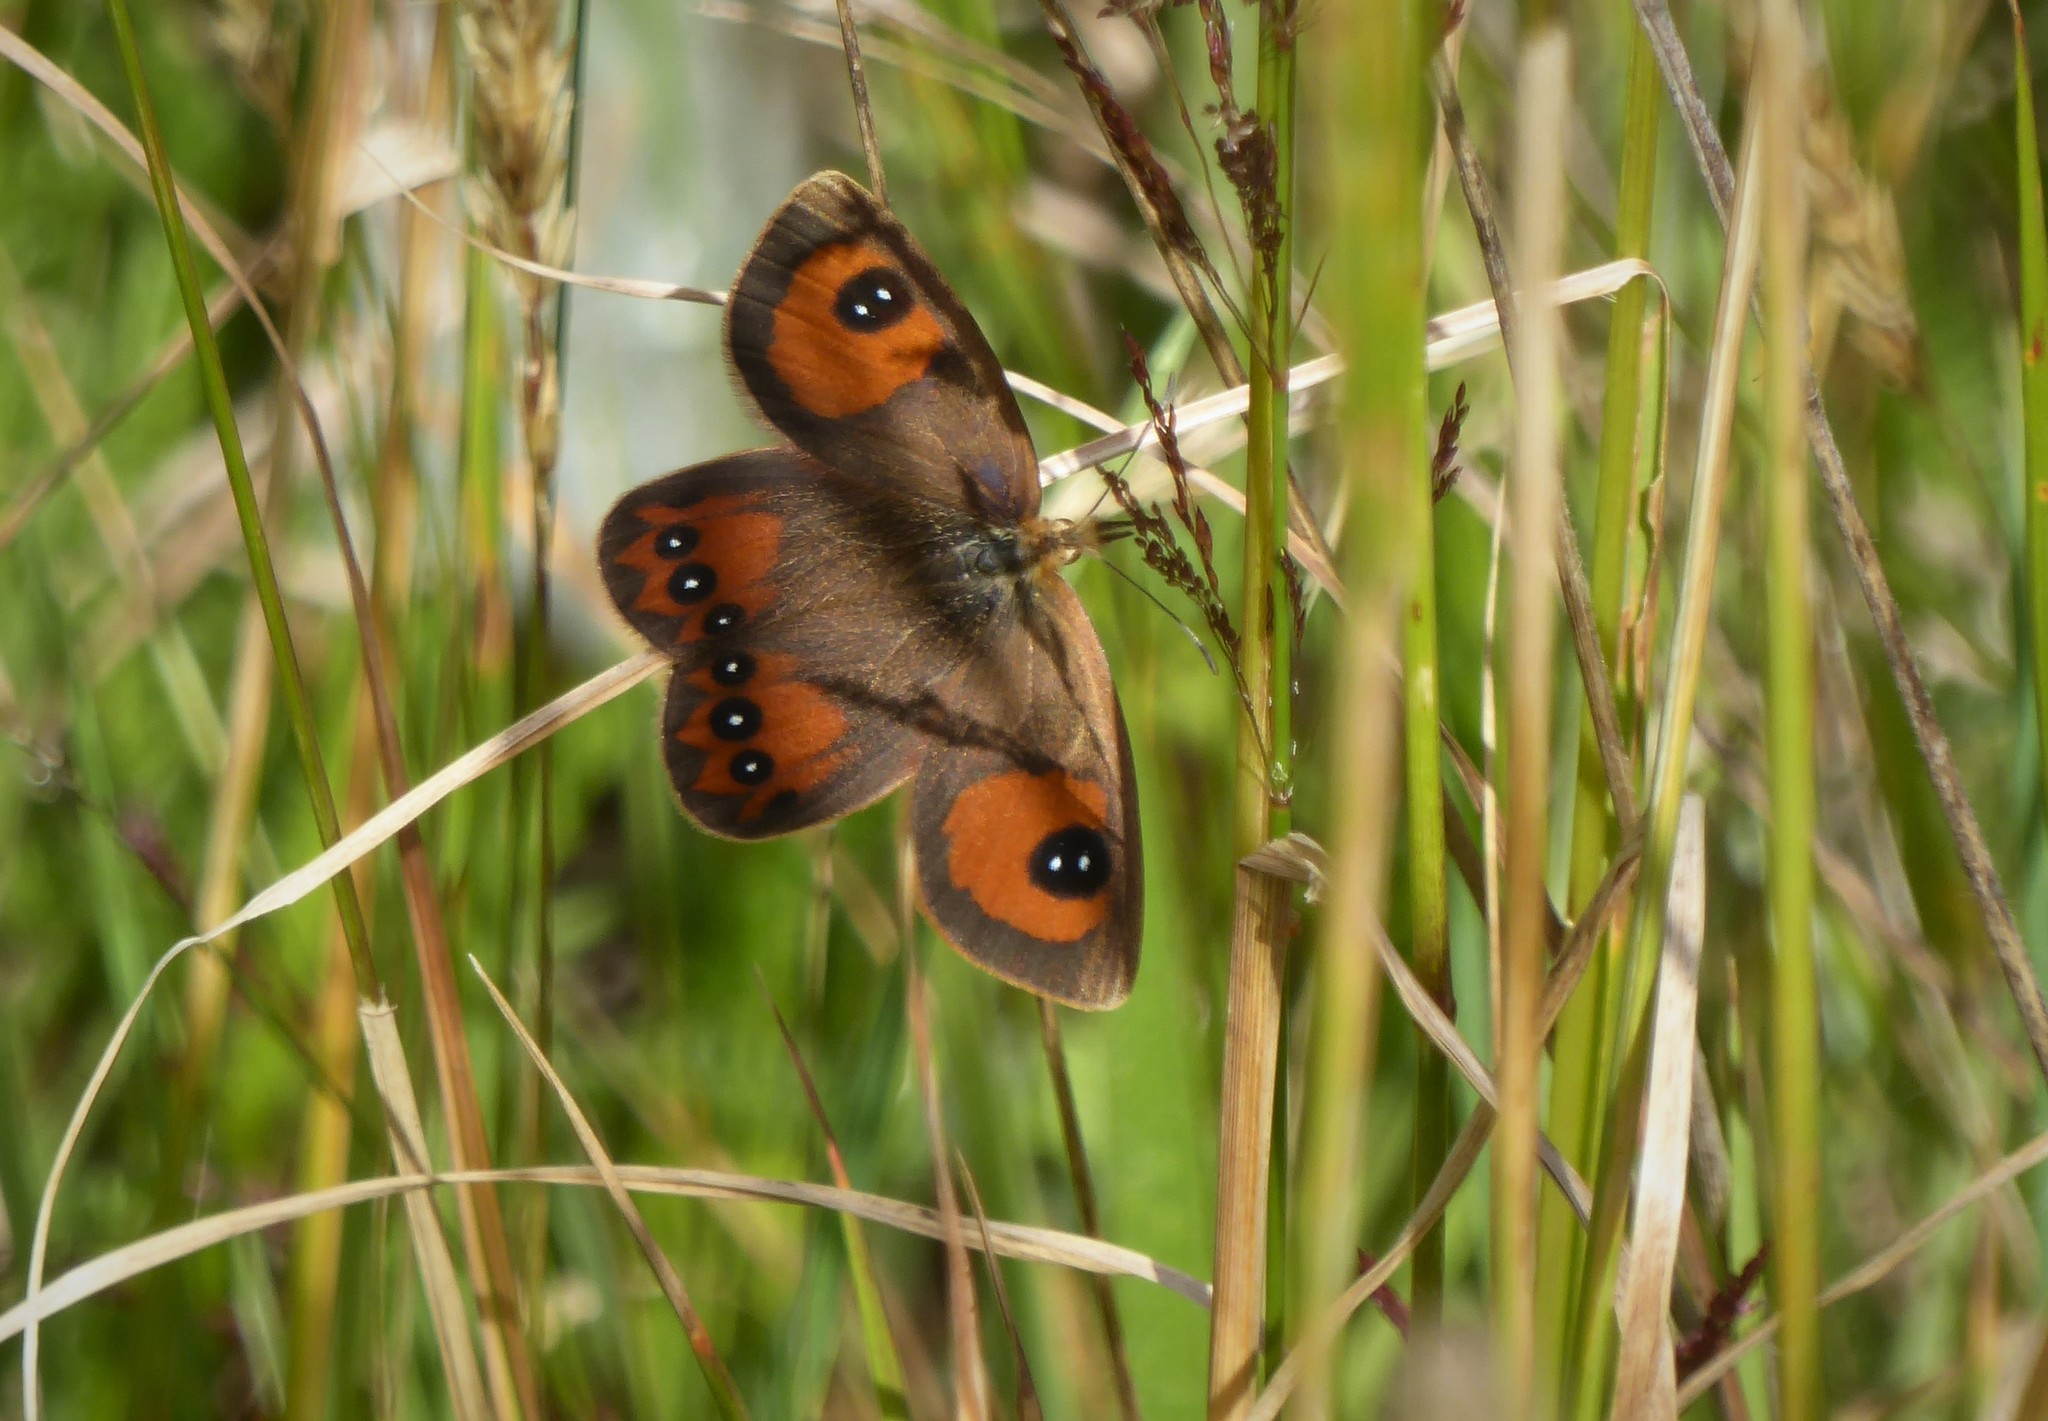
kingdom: Animalia
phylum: Arthropoda
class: Insecta
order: Lepidoptera
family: Nymphalidae
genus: Argyrophenga
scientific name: Argyrophenga antipodum
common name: Common tussock butterfly
